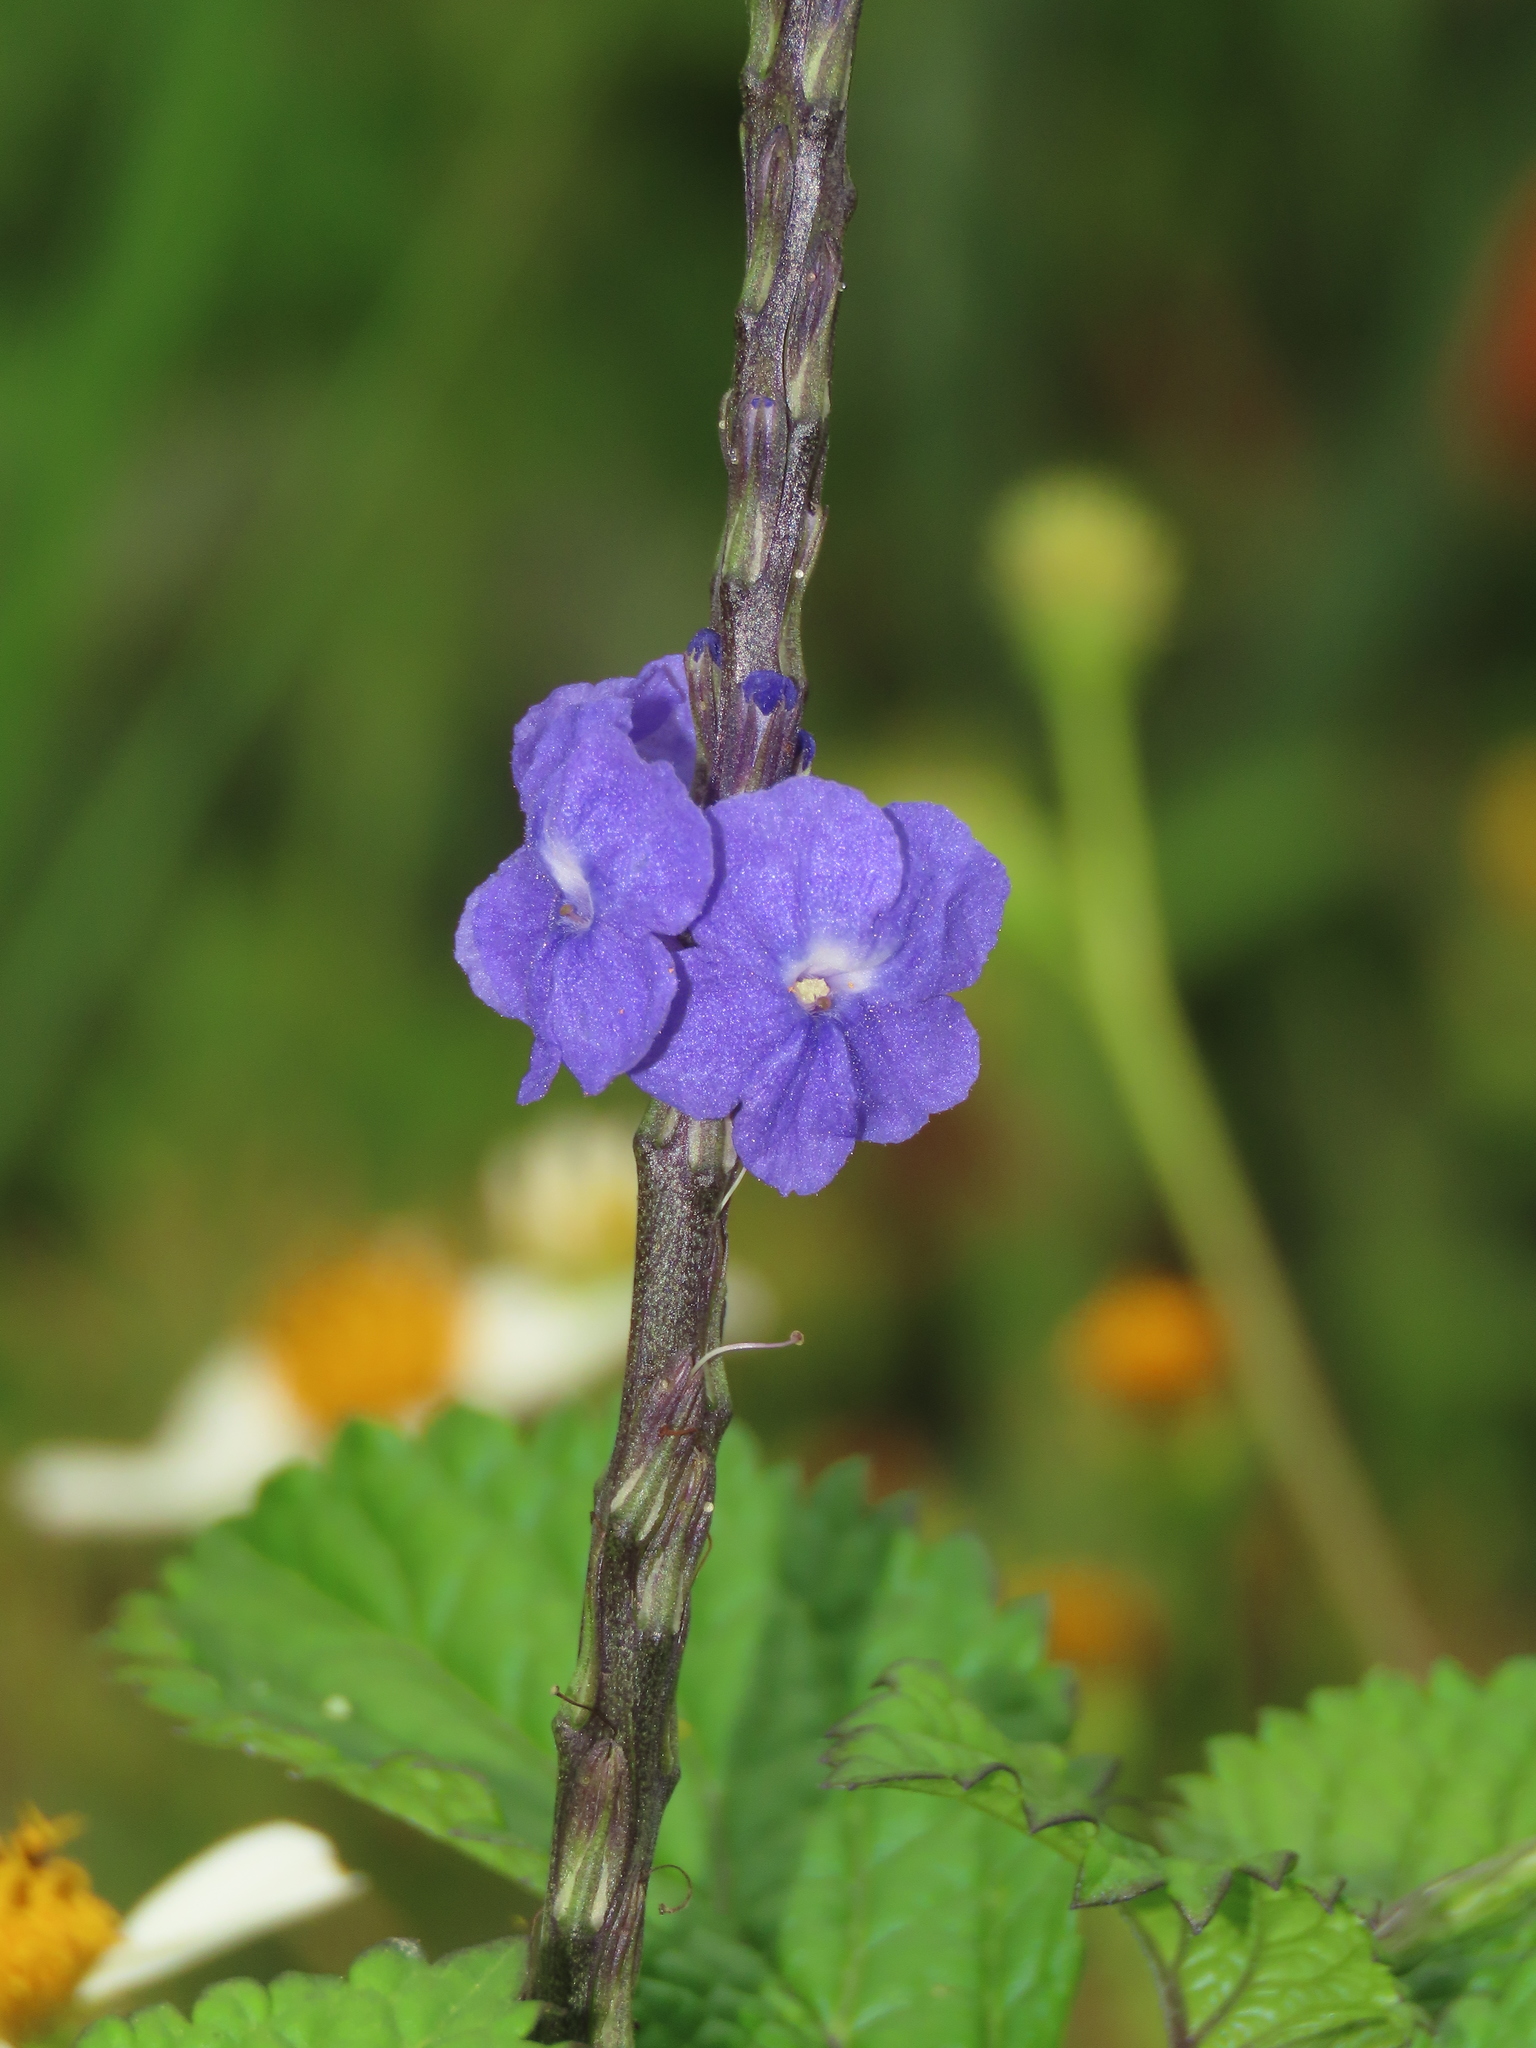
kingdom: Plantae
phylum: Tracheophyta
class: Magnoliopsida
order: Lamiales
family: Verbenaceae
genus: Stachytarpheta
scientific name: Stachytarpheta urticifolia
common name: Nettleleaf velvetberry
